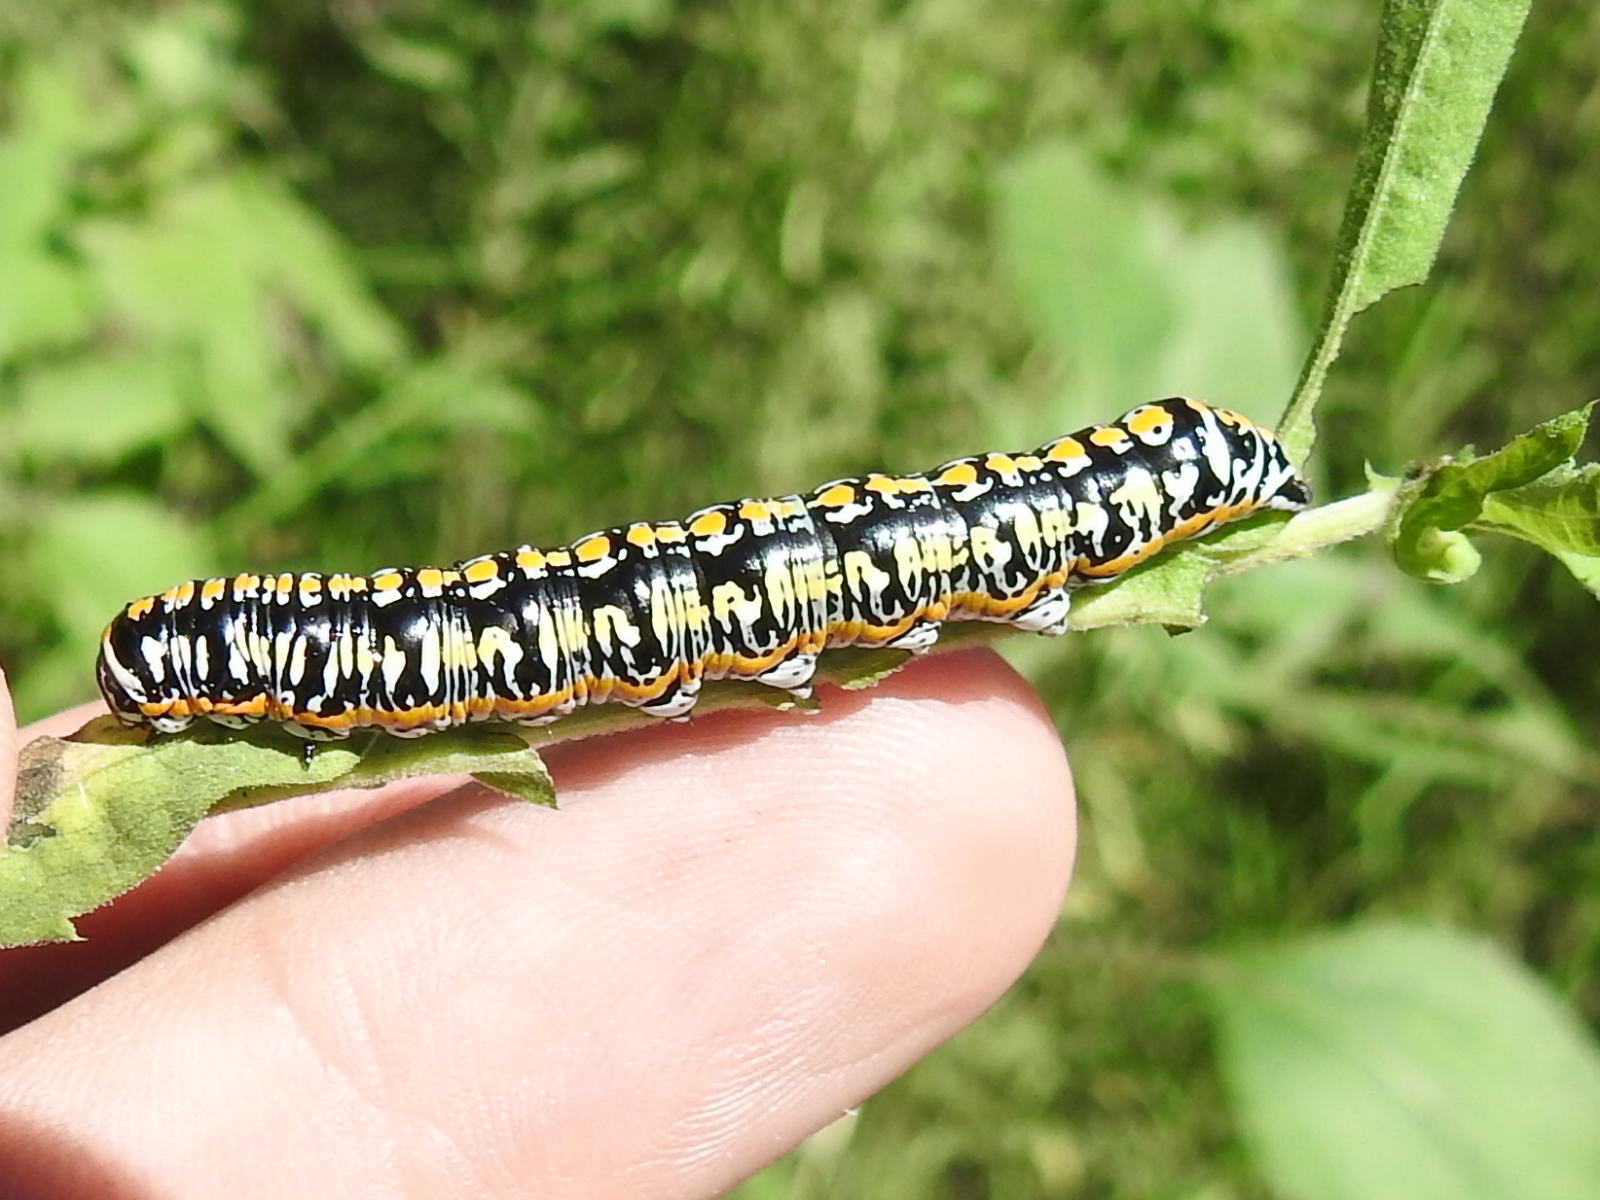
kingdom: Animalia
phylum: Arthropoda
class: Insecta
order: Lepidoptera
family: Noctuidae
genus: Cucullia
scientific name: Cucullia charon
